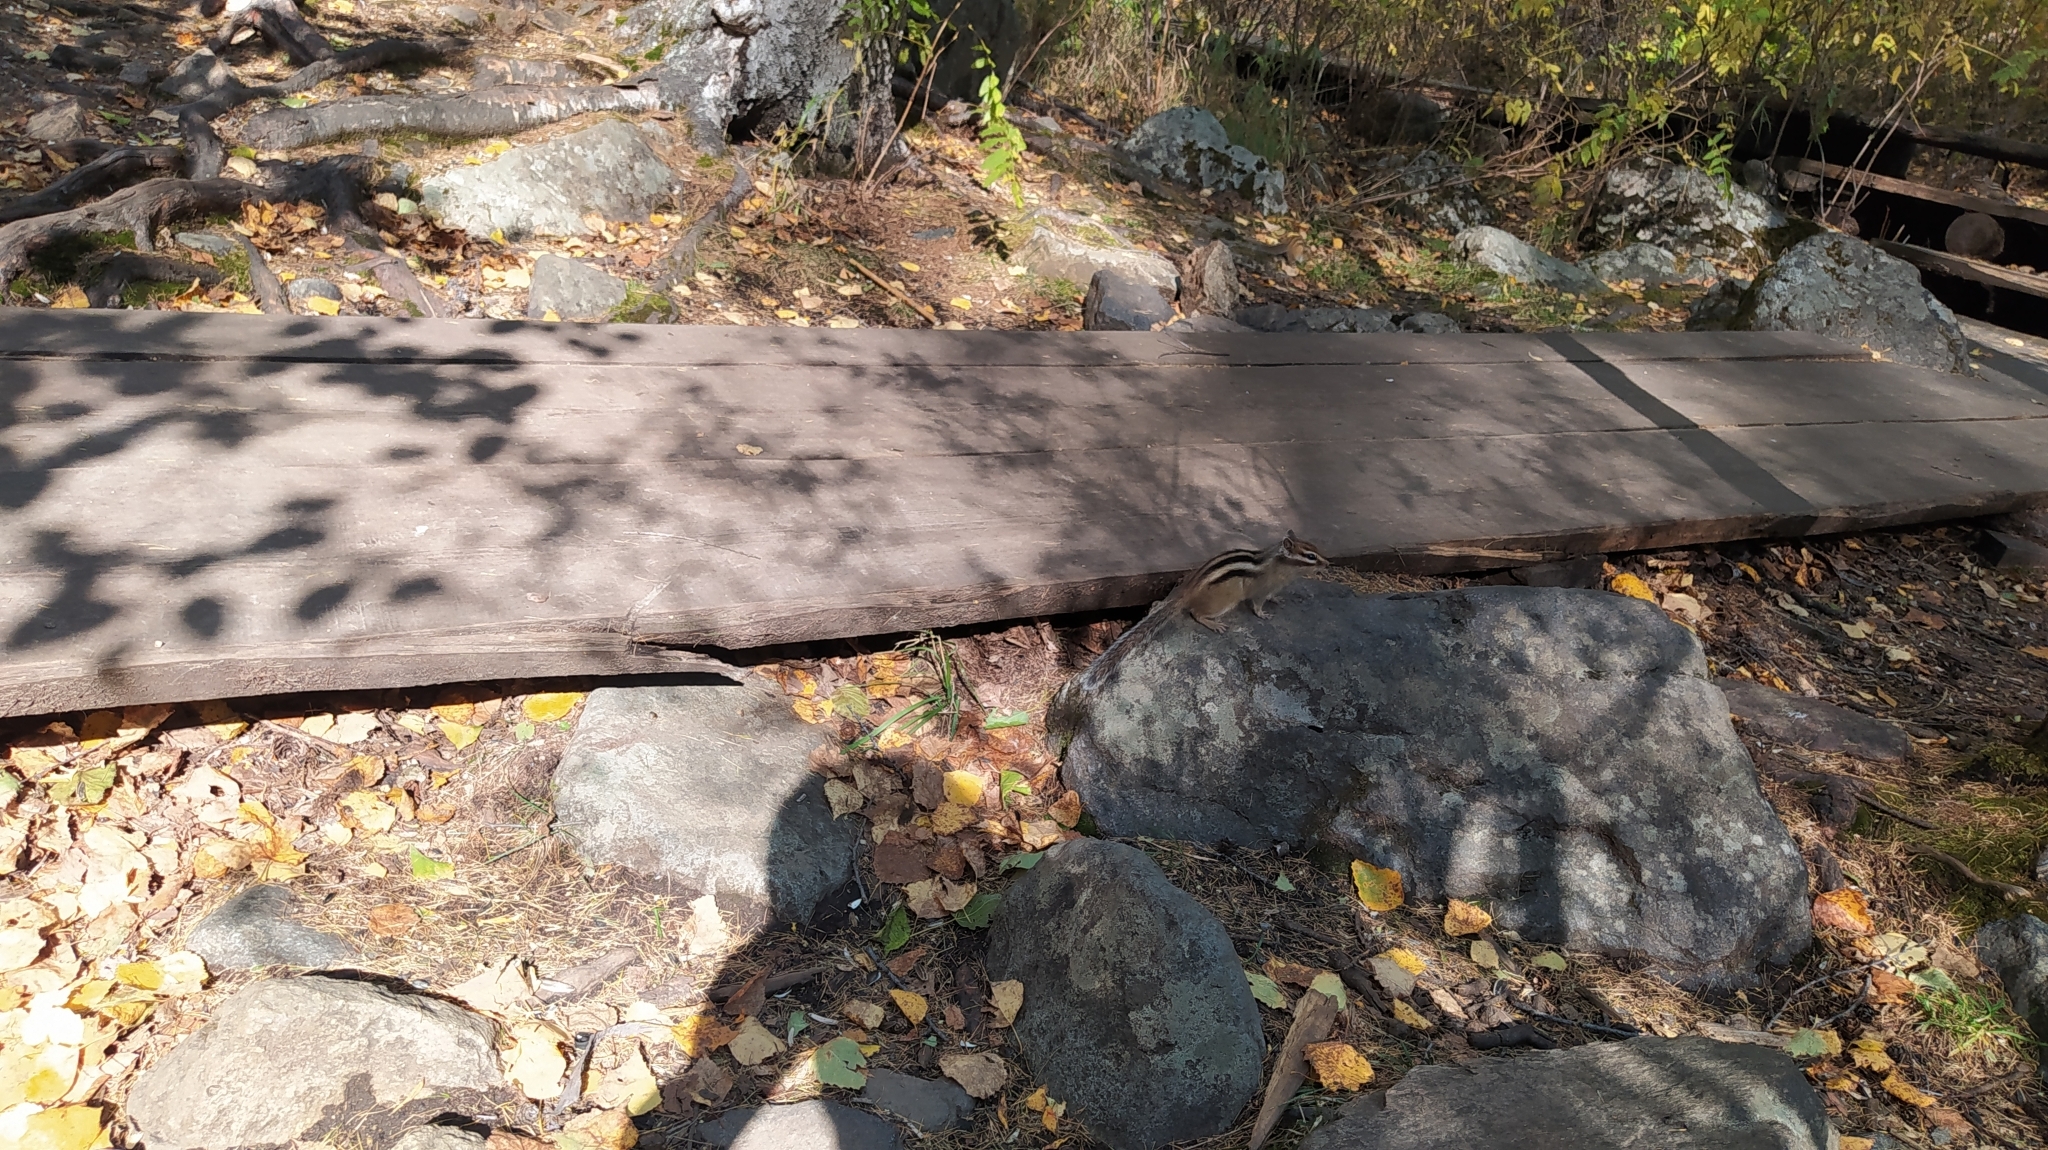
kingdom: Animalia
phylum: Chordata
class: Mammalia
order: Rodentia
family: Sciuridae
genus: Tamias
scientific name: Tamias sibiricus
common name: Siberian chipmunk
